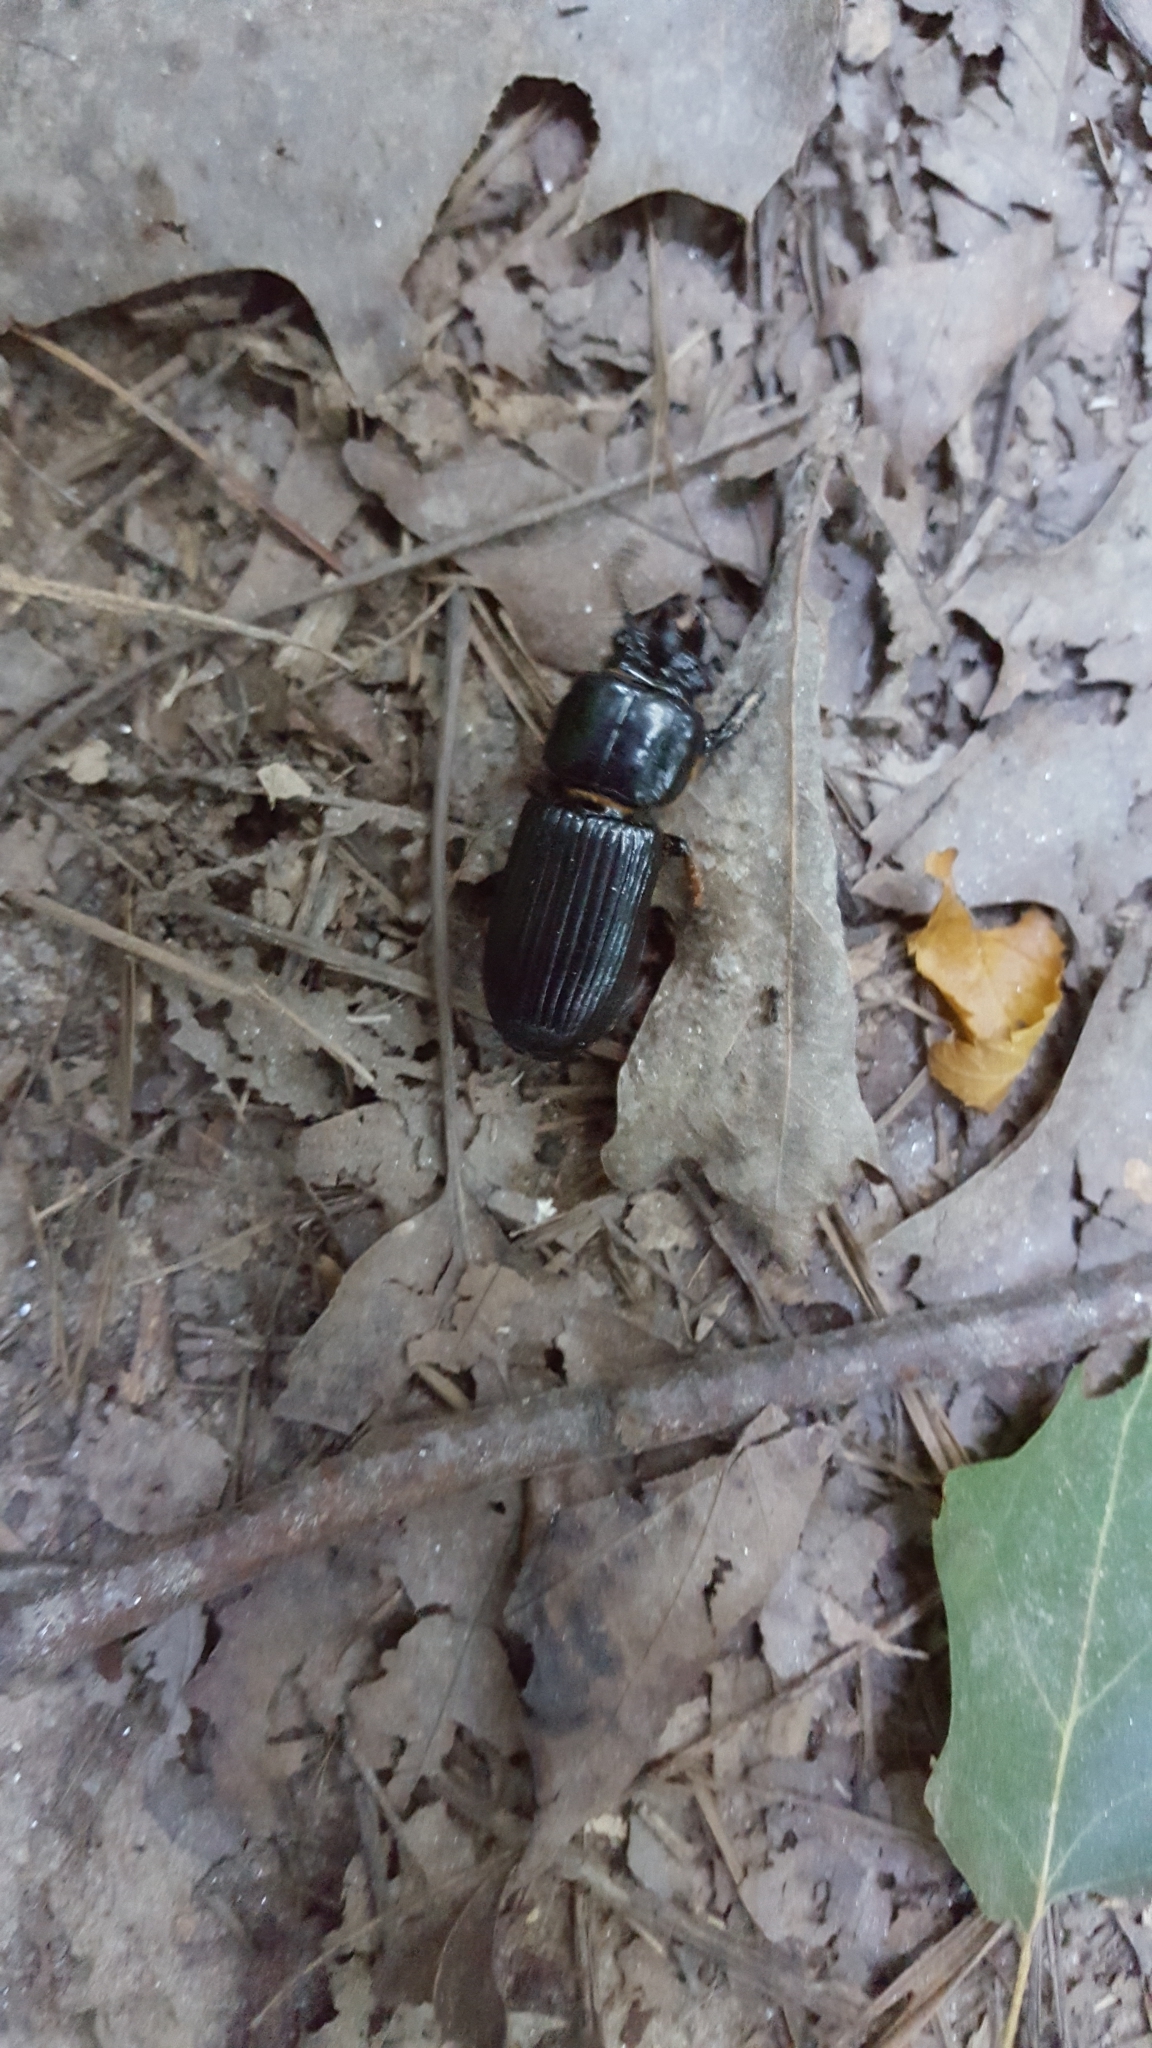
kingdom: Animalia
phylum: Arthropoda
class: Insecta
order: Coleoptera
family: Passalidae
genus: Odontotaenius
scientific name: Odontotaenius disjunctus
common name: Patent leather beetle
